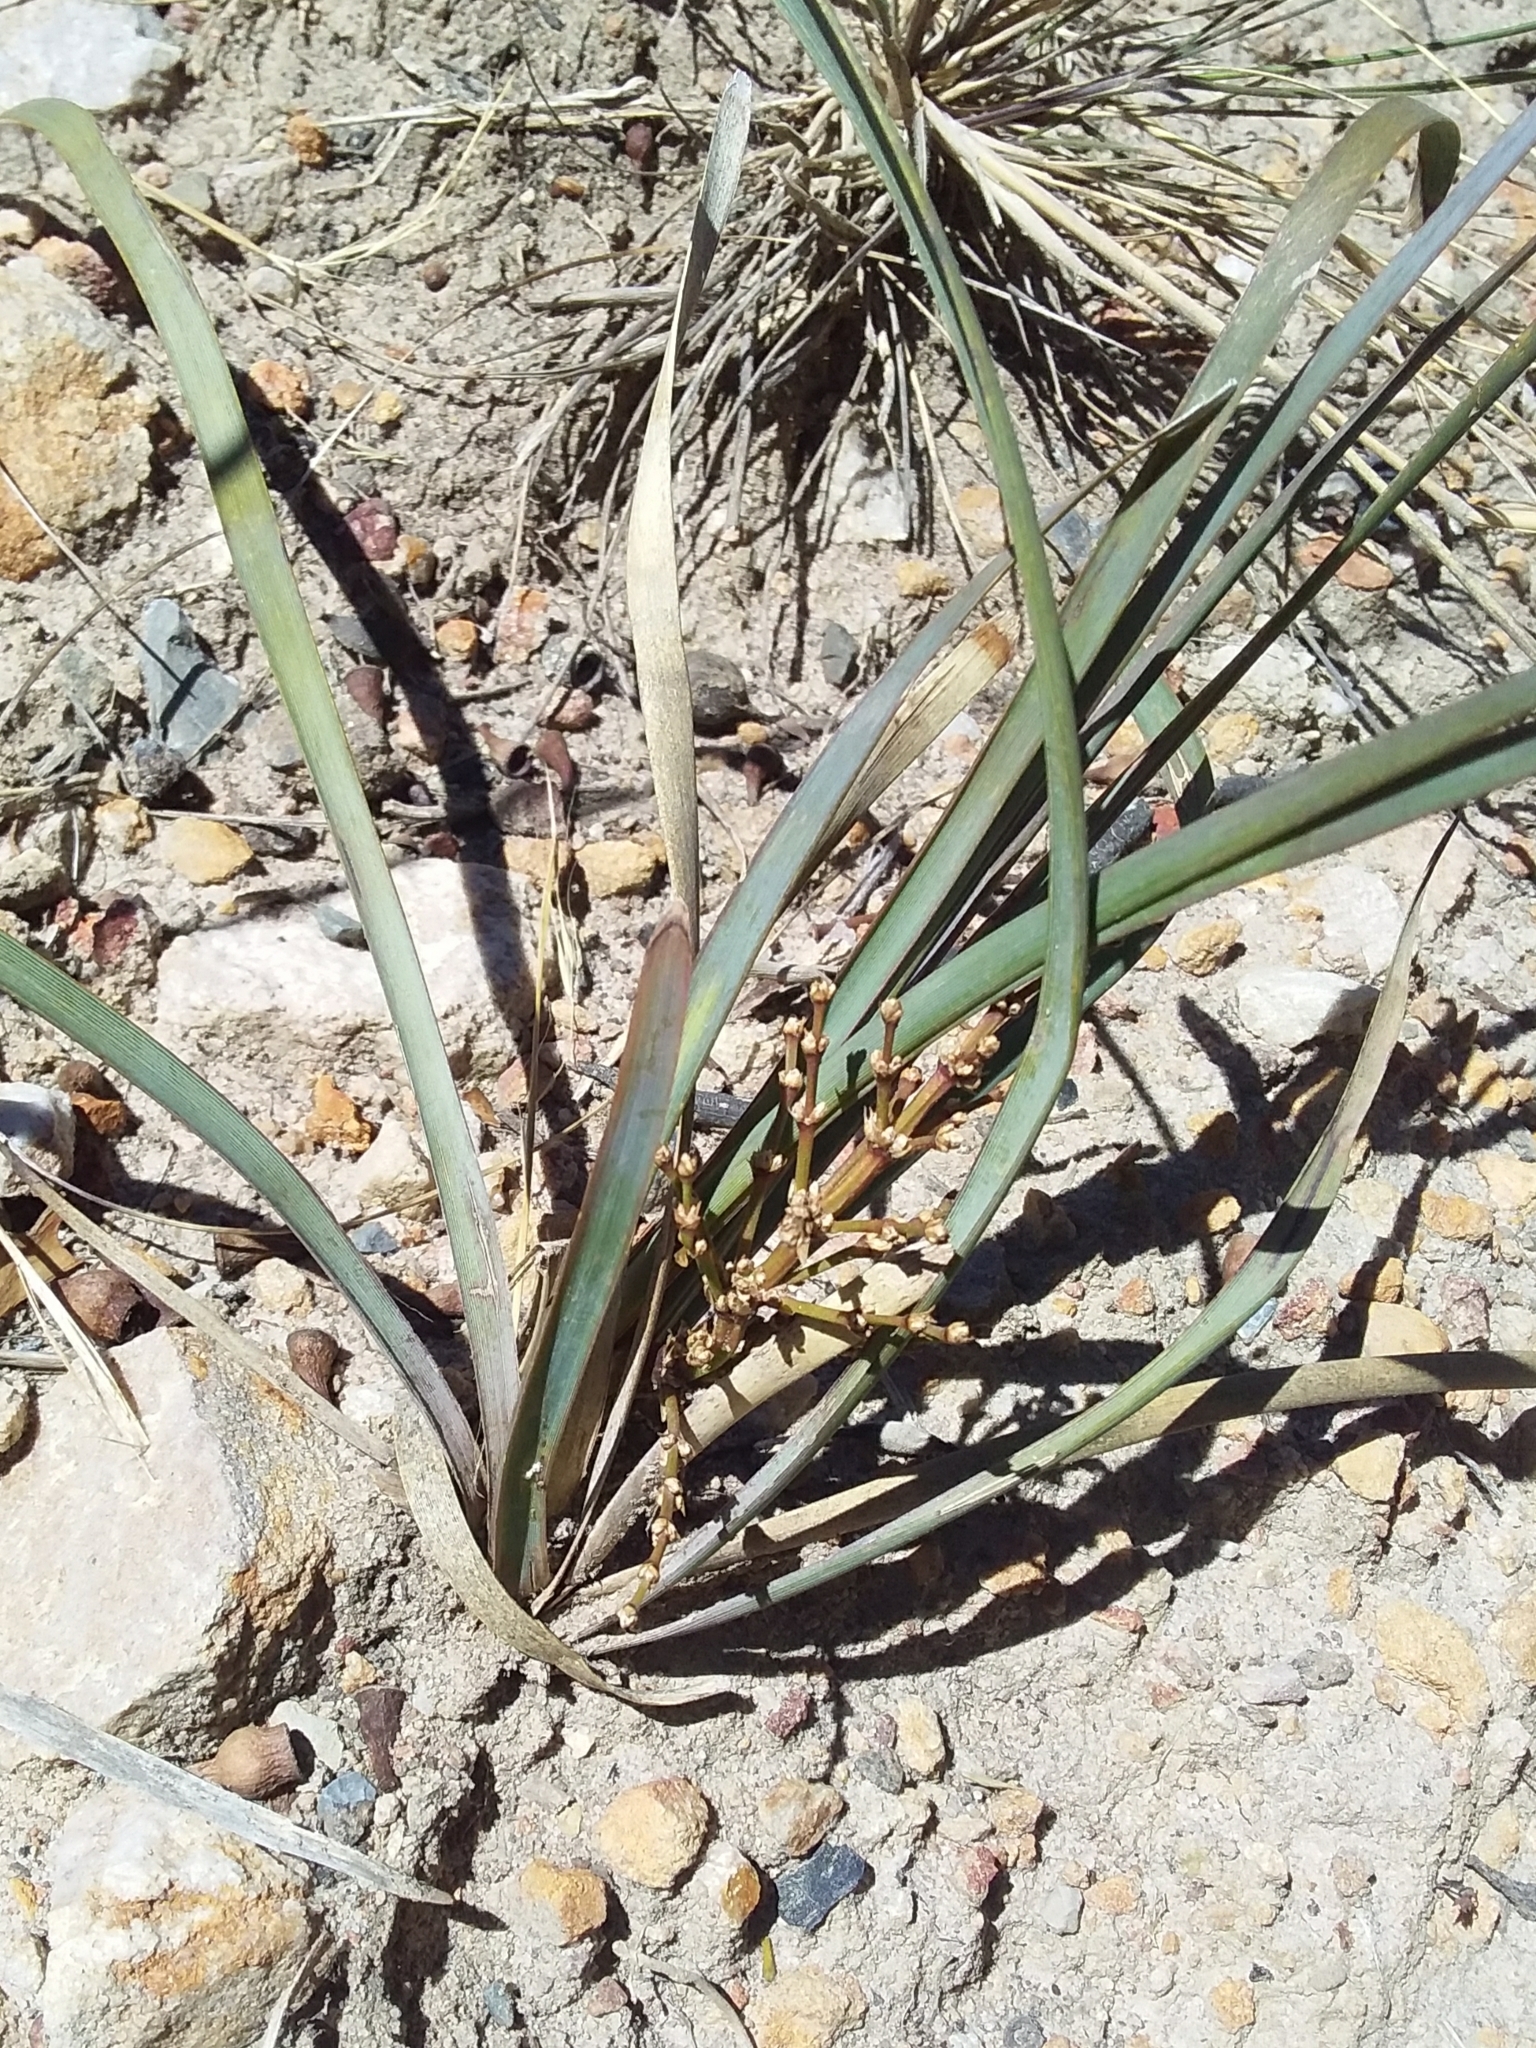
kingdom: Plantae
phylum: Tracheophyta
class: Liliopsida
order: Asparagales
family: Asparagaceae
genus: Lomandra
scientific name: Lomandra multiflora
